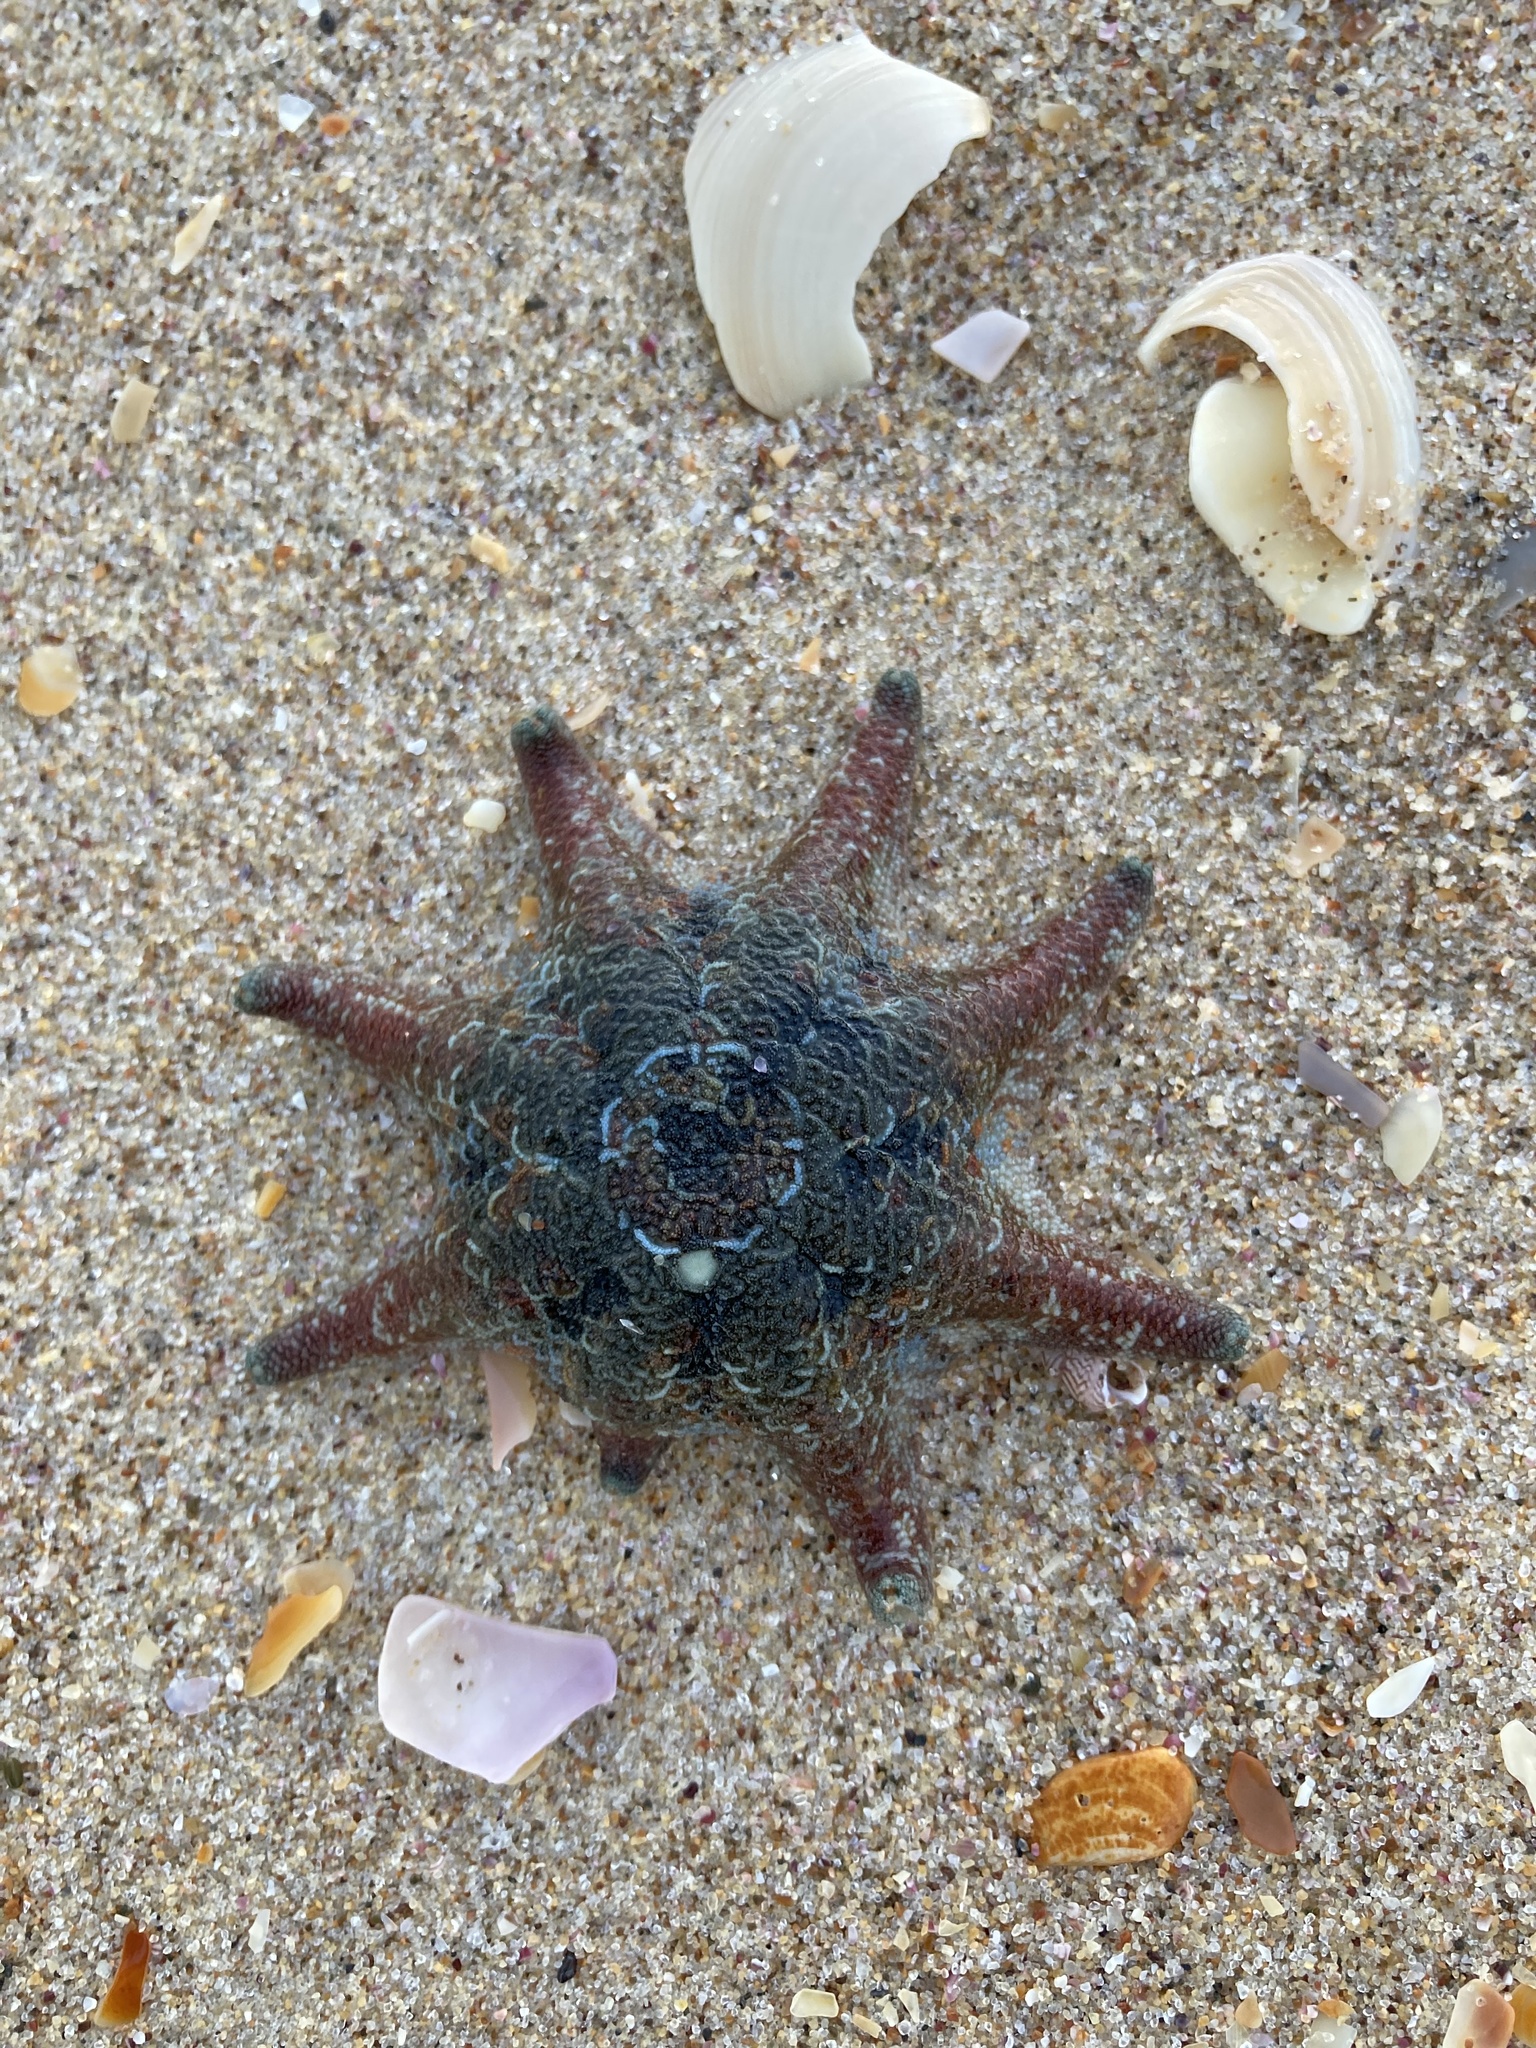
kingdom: Animalia
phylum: Echinodermata
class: Asteroidea
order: Valvatida
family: Asterinidae
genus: Meridiastra
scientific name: Meridiastra calcar
